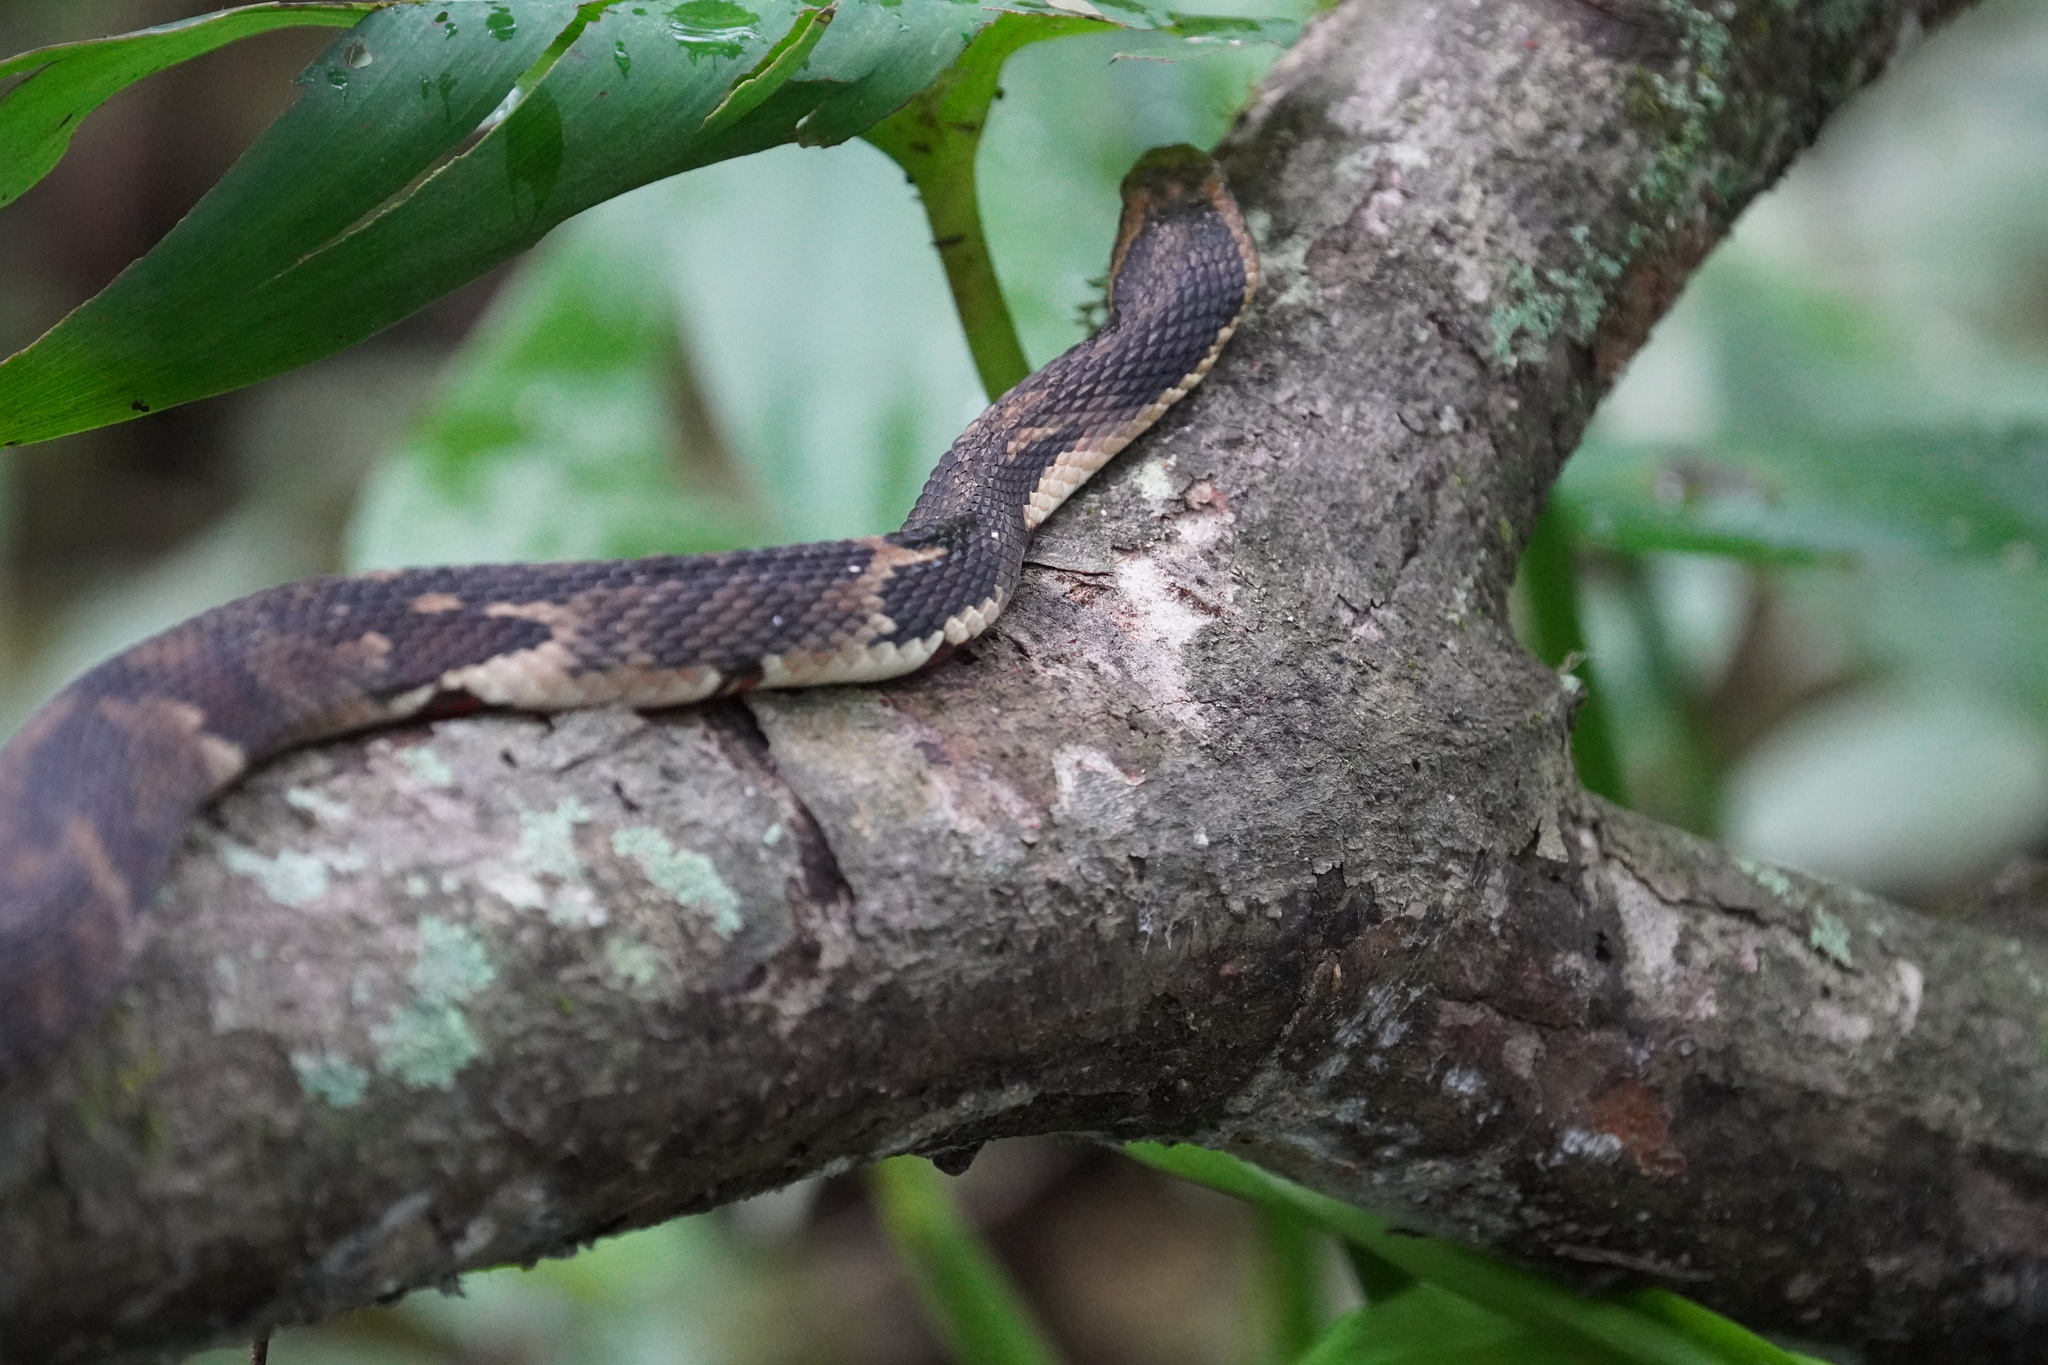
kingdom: Animalia
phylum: Chordata
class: Squamata
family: Colubridae
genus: Nerodia
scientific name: Nerodia fasciata
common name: Southern water snake
